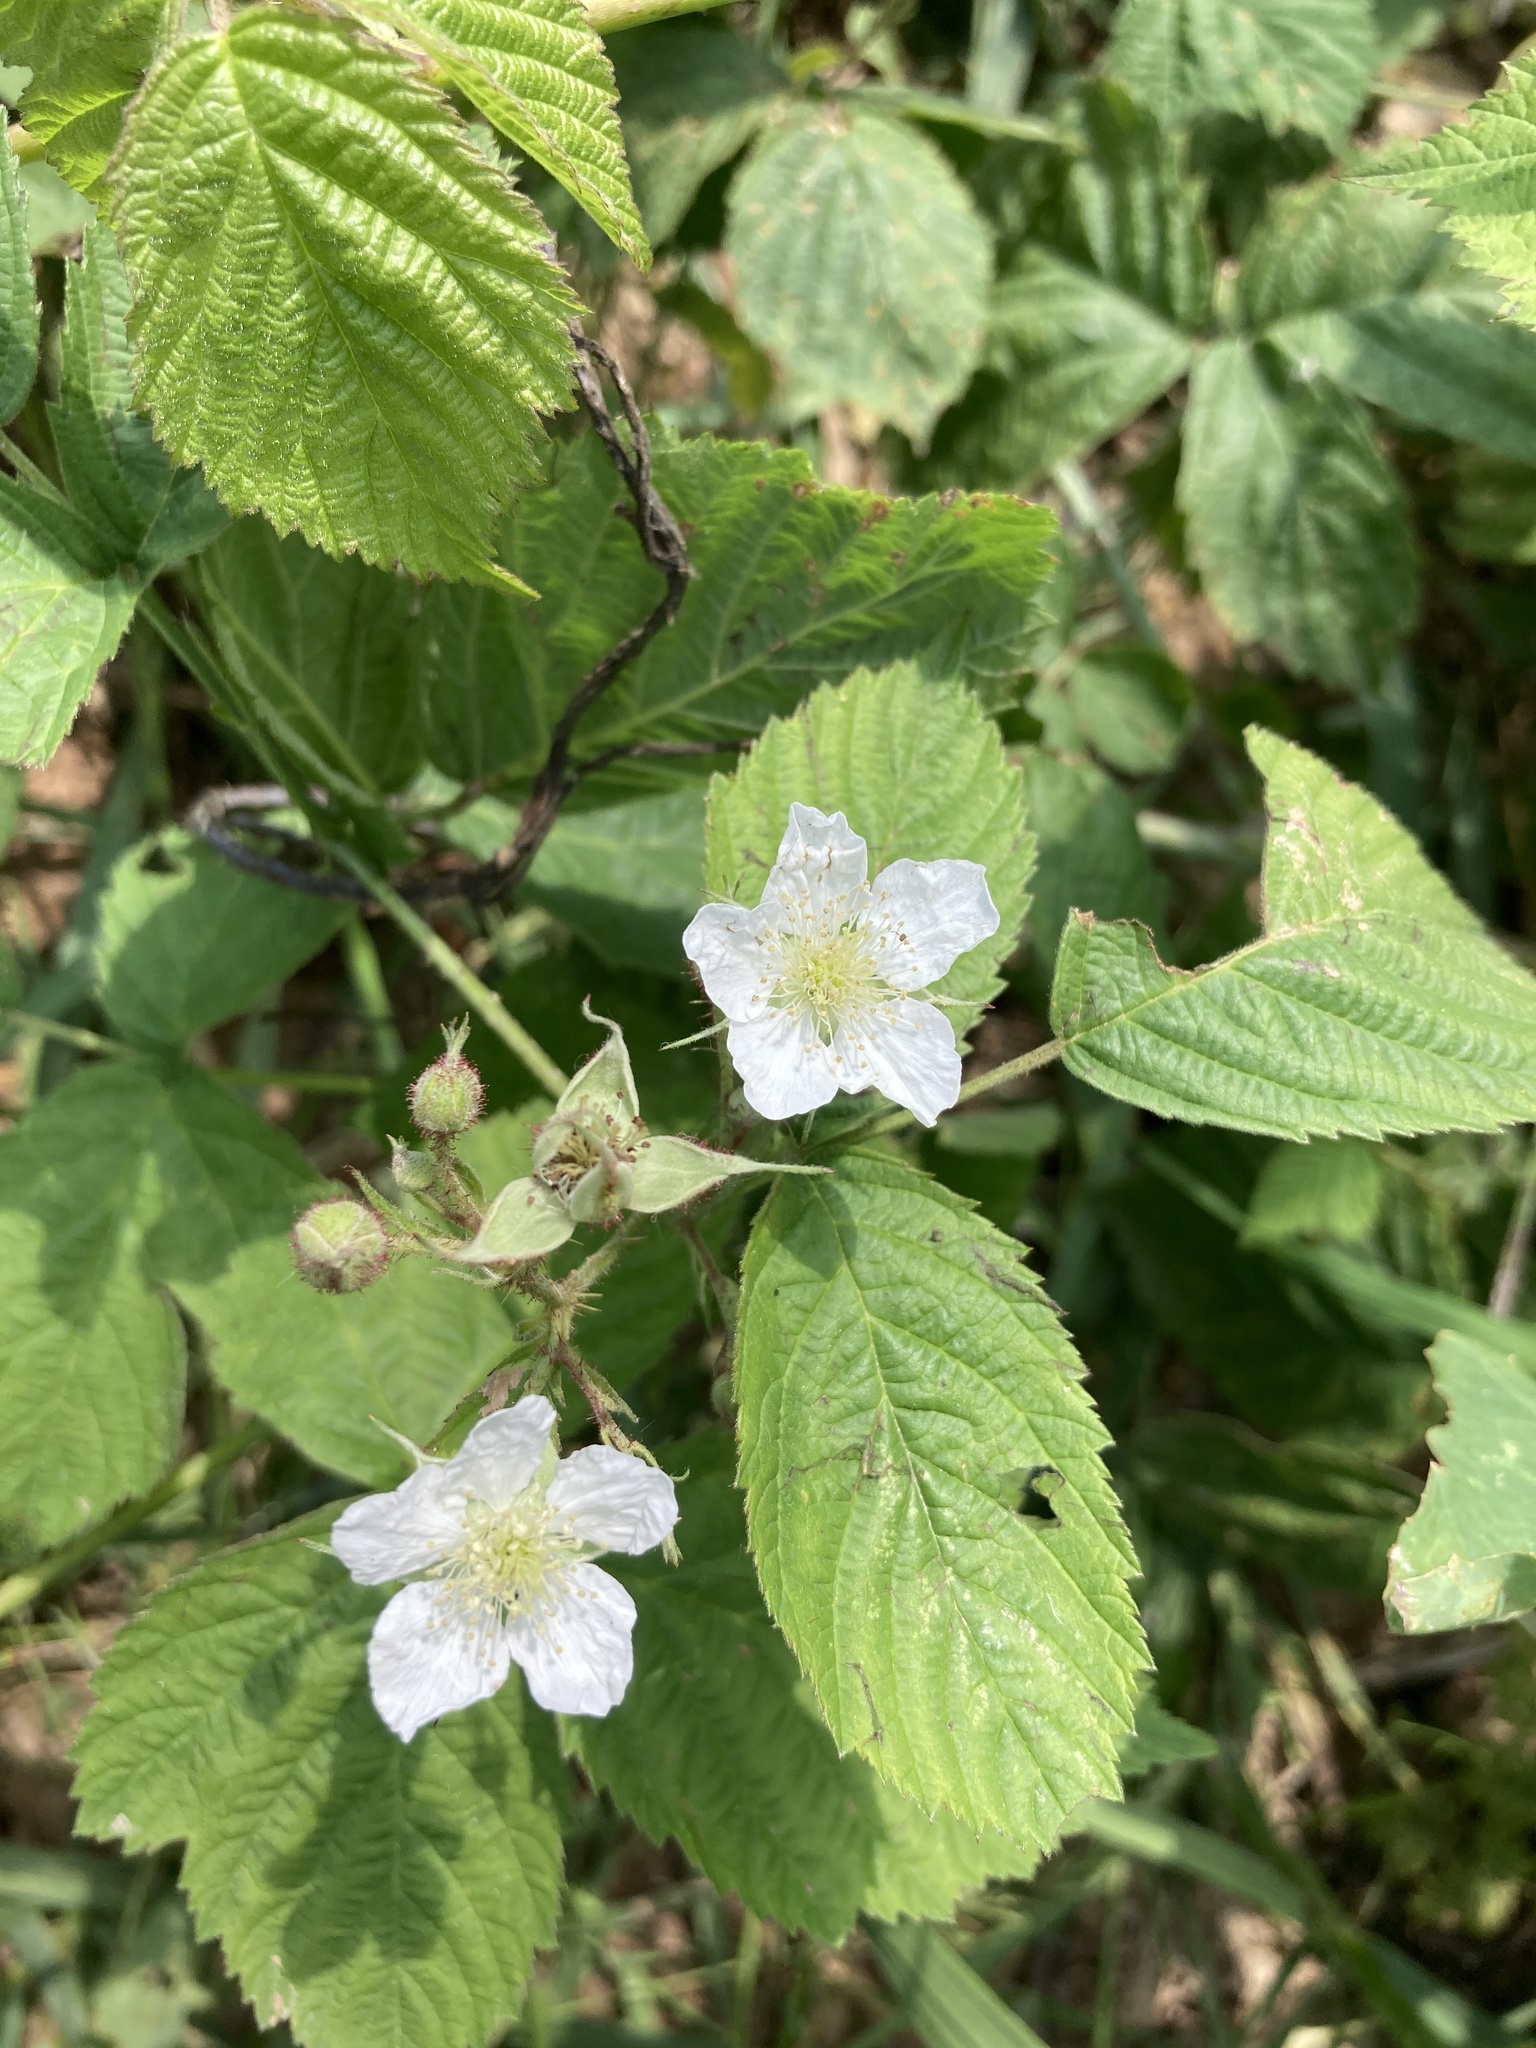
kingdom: Plantae
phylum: Tracheophyta
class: Magnoliopsida
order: Rosales
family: Rosaceae
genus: Rubus
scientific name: Rubus caesius
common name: Dewberry
